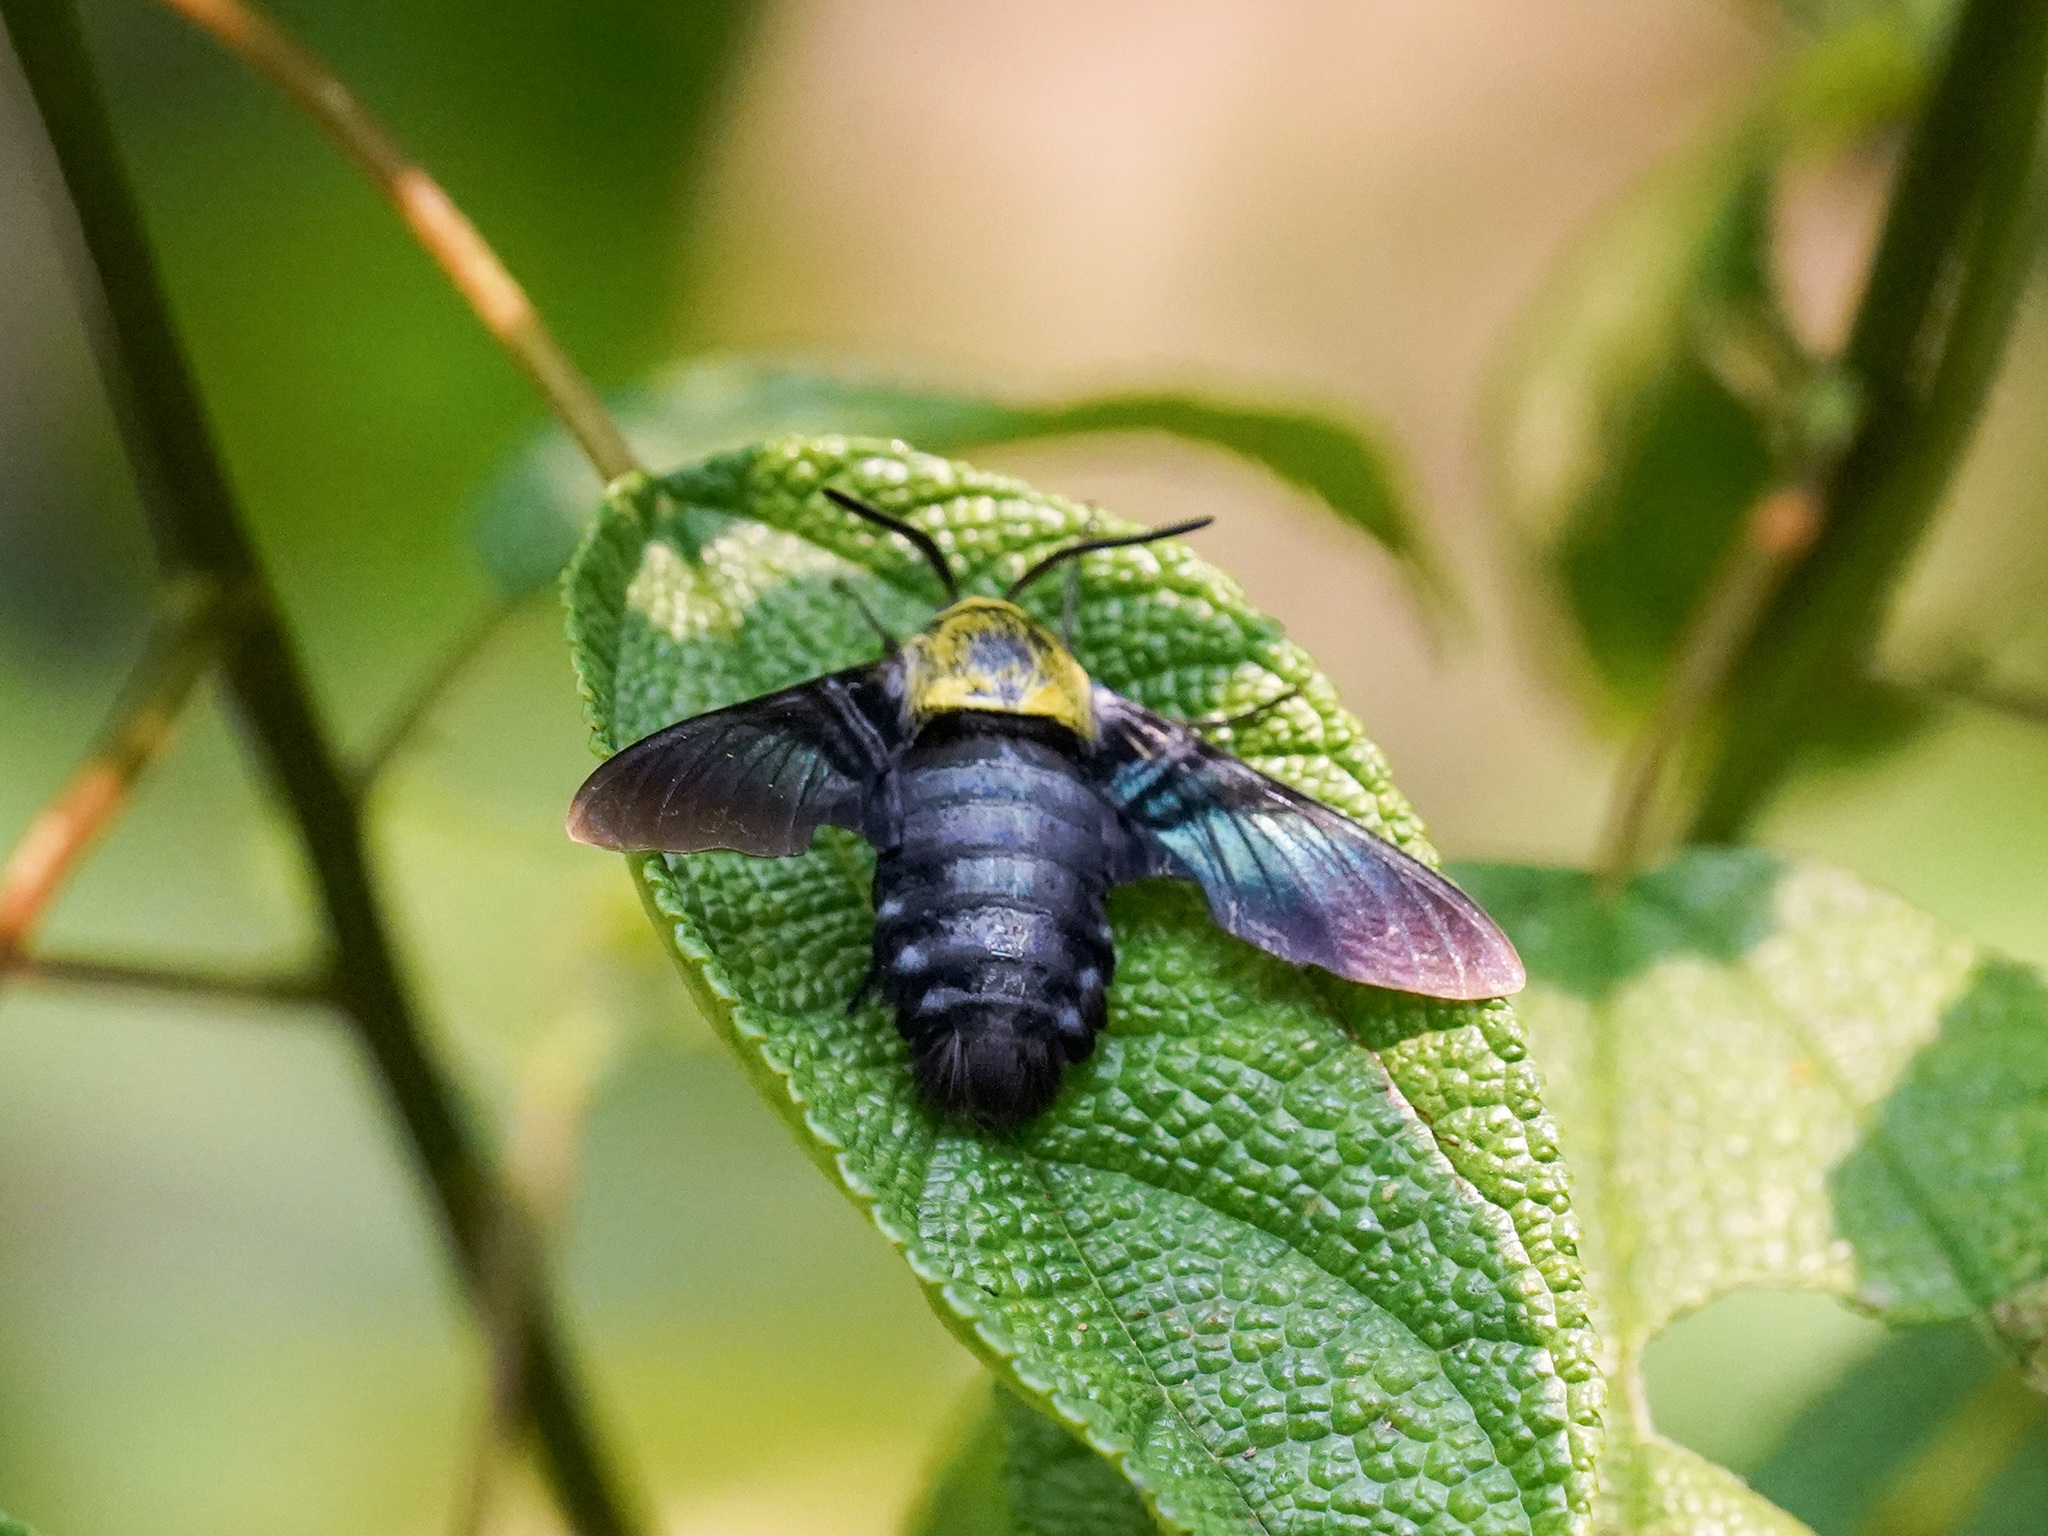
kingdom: Animalia
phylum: Arthropoda
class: Insecta
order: Lepidoptera
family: Sphingidae
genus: Sataspes
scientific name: Sataspes tagalica
